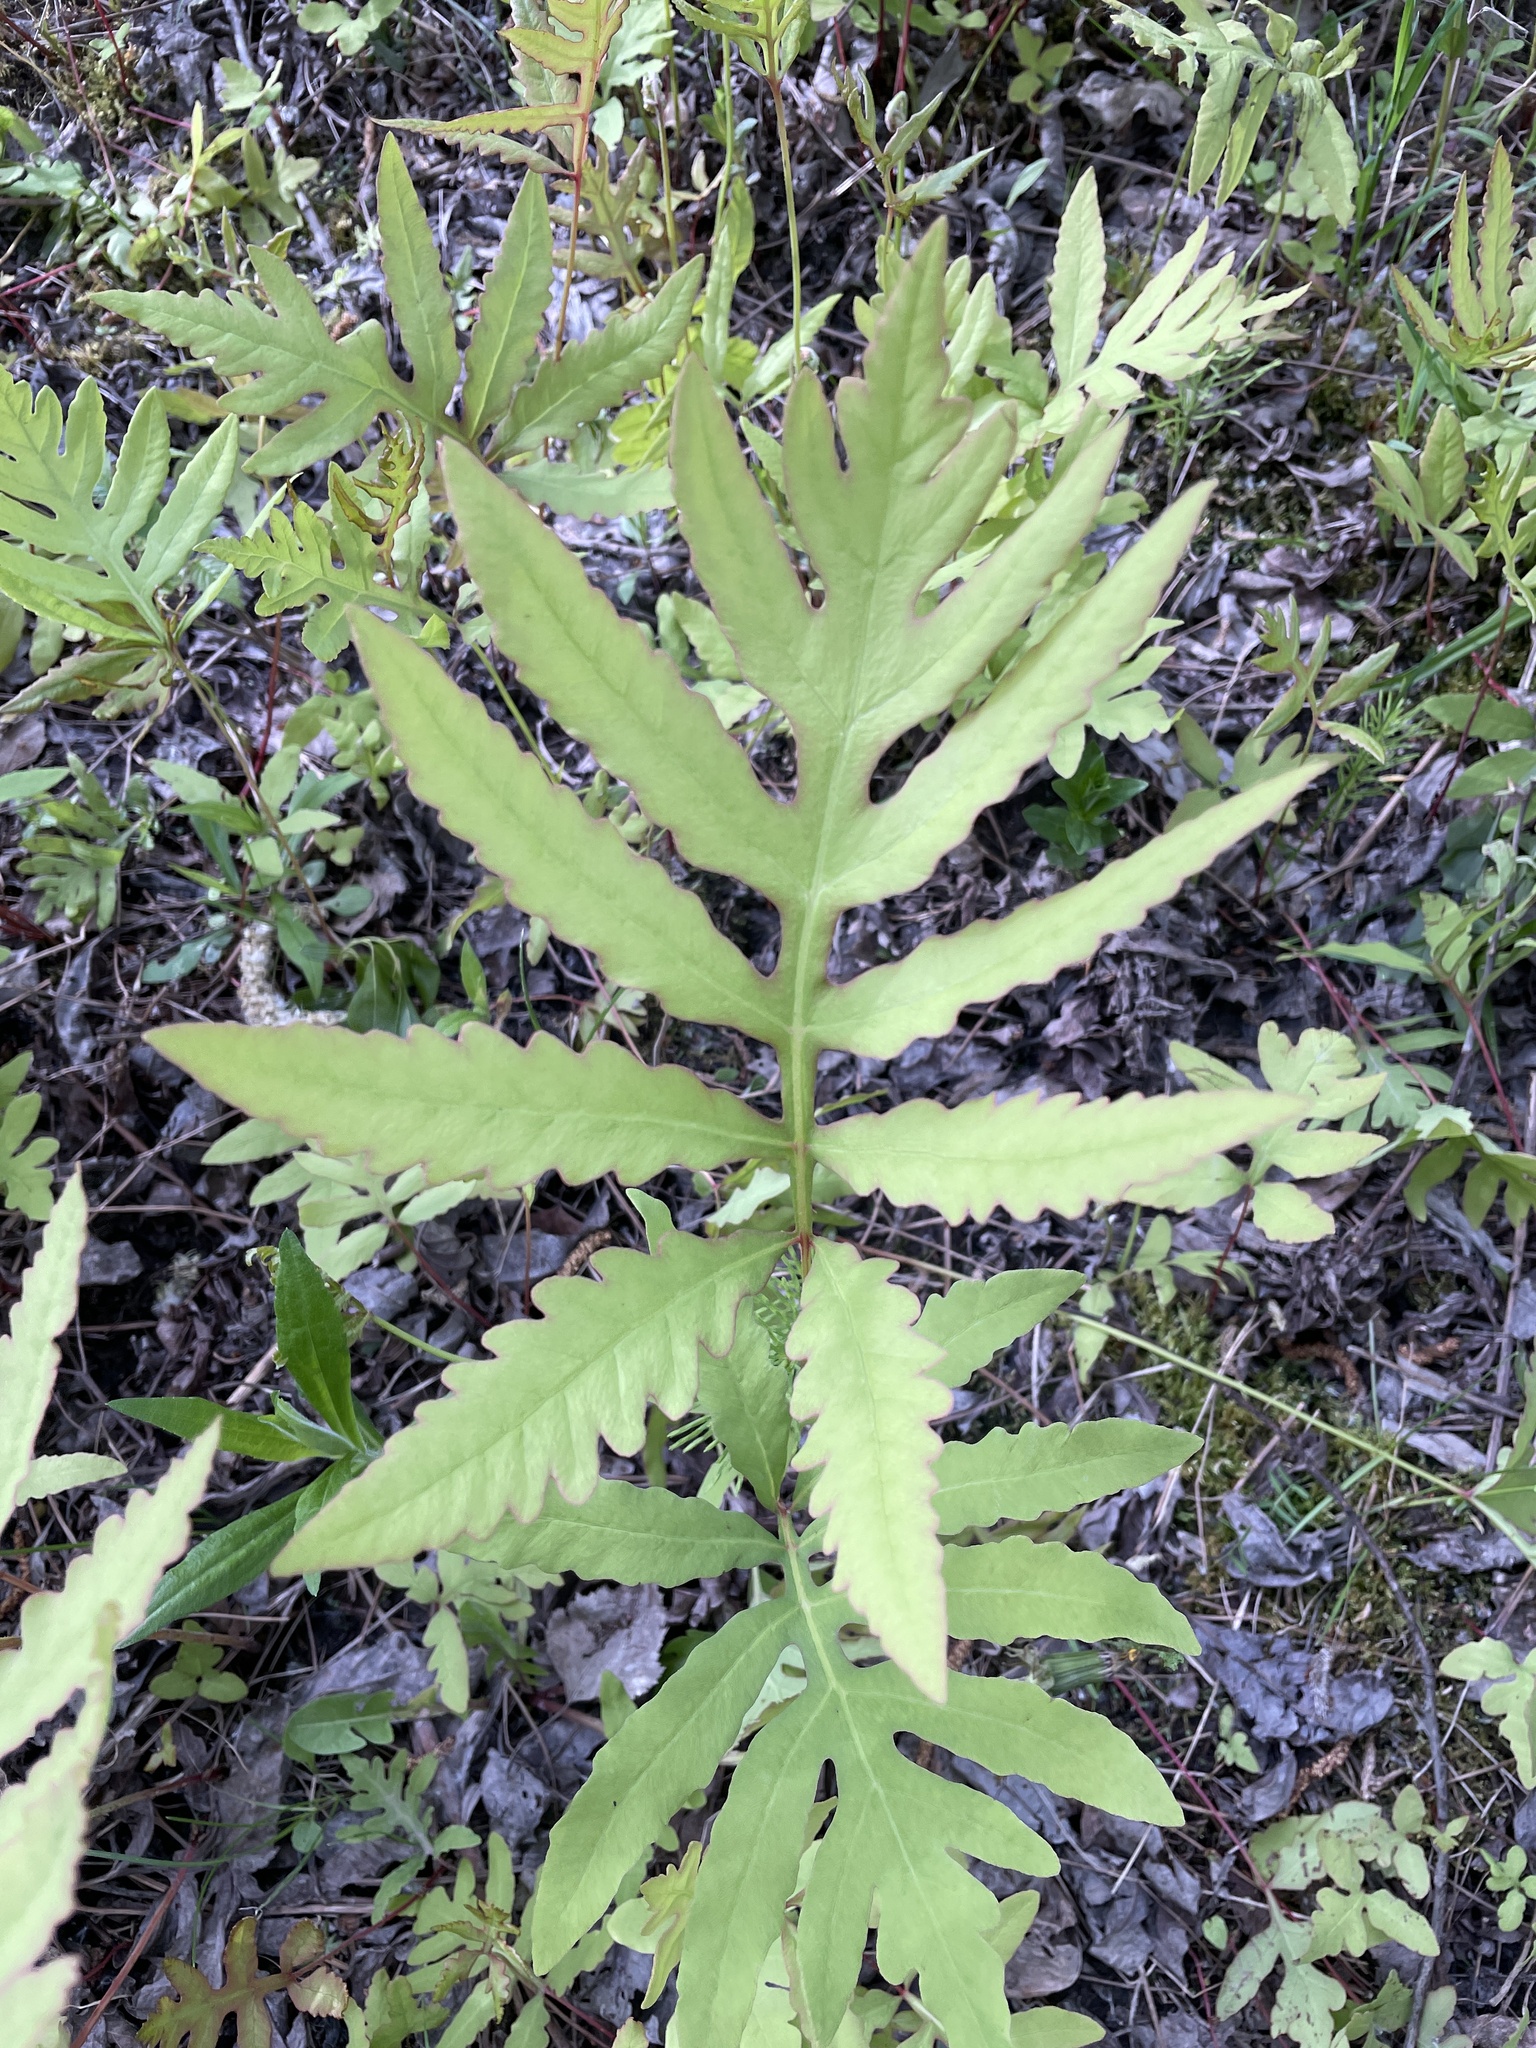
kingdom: Plantae
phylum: Tracheophyta
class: Polypodiopsida
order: Polypodiales
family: Onocleaceae
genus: Onoclea
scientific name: Onoclea sensibilis
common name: Sensitive fern
